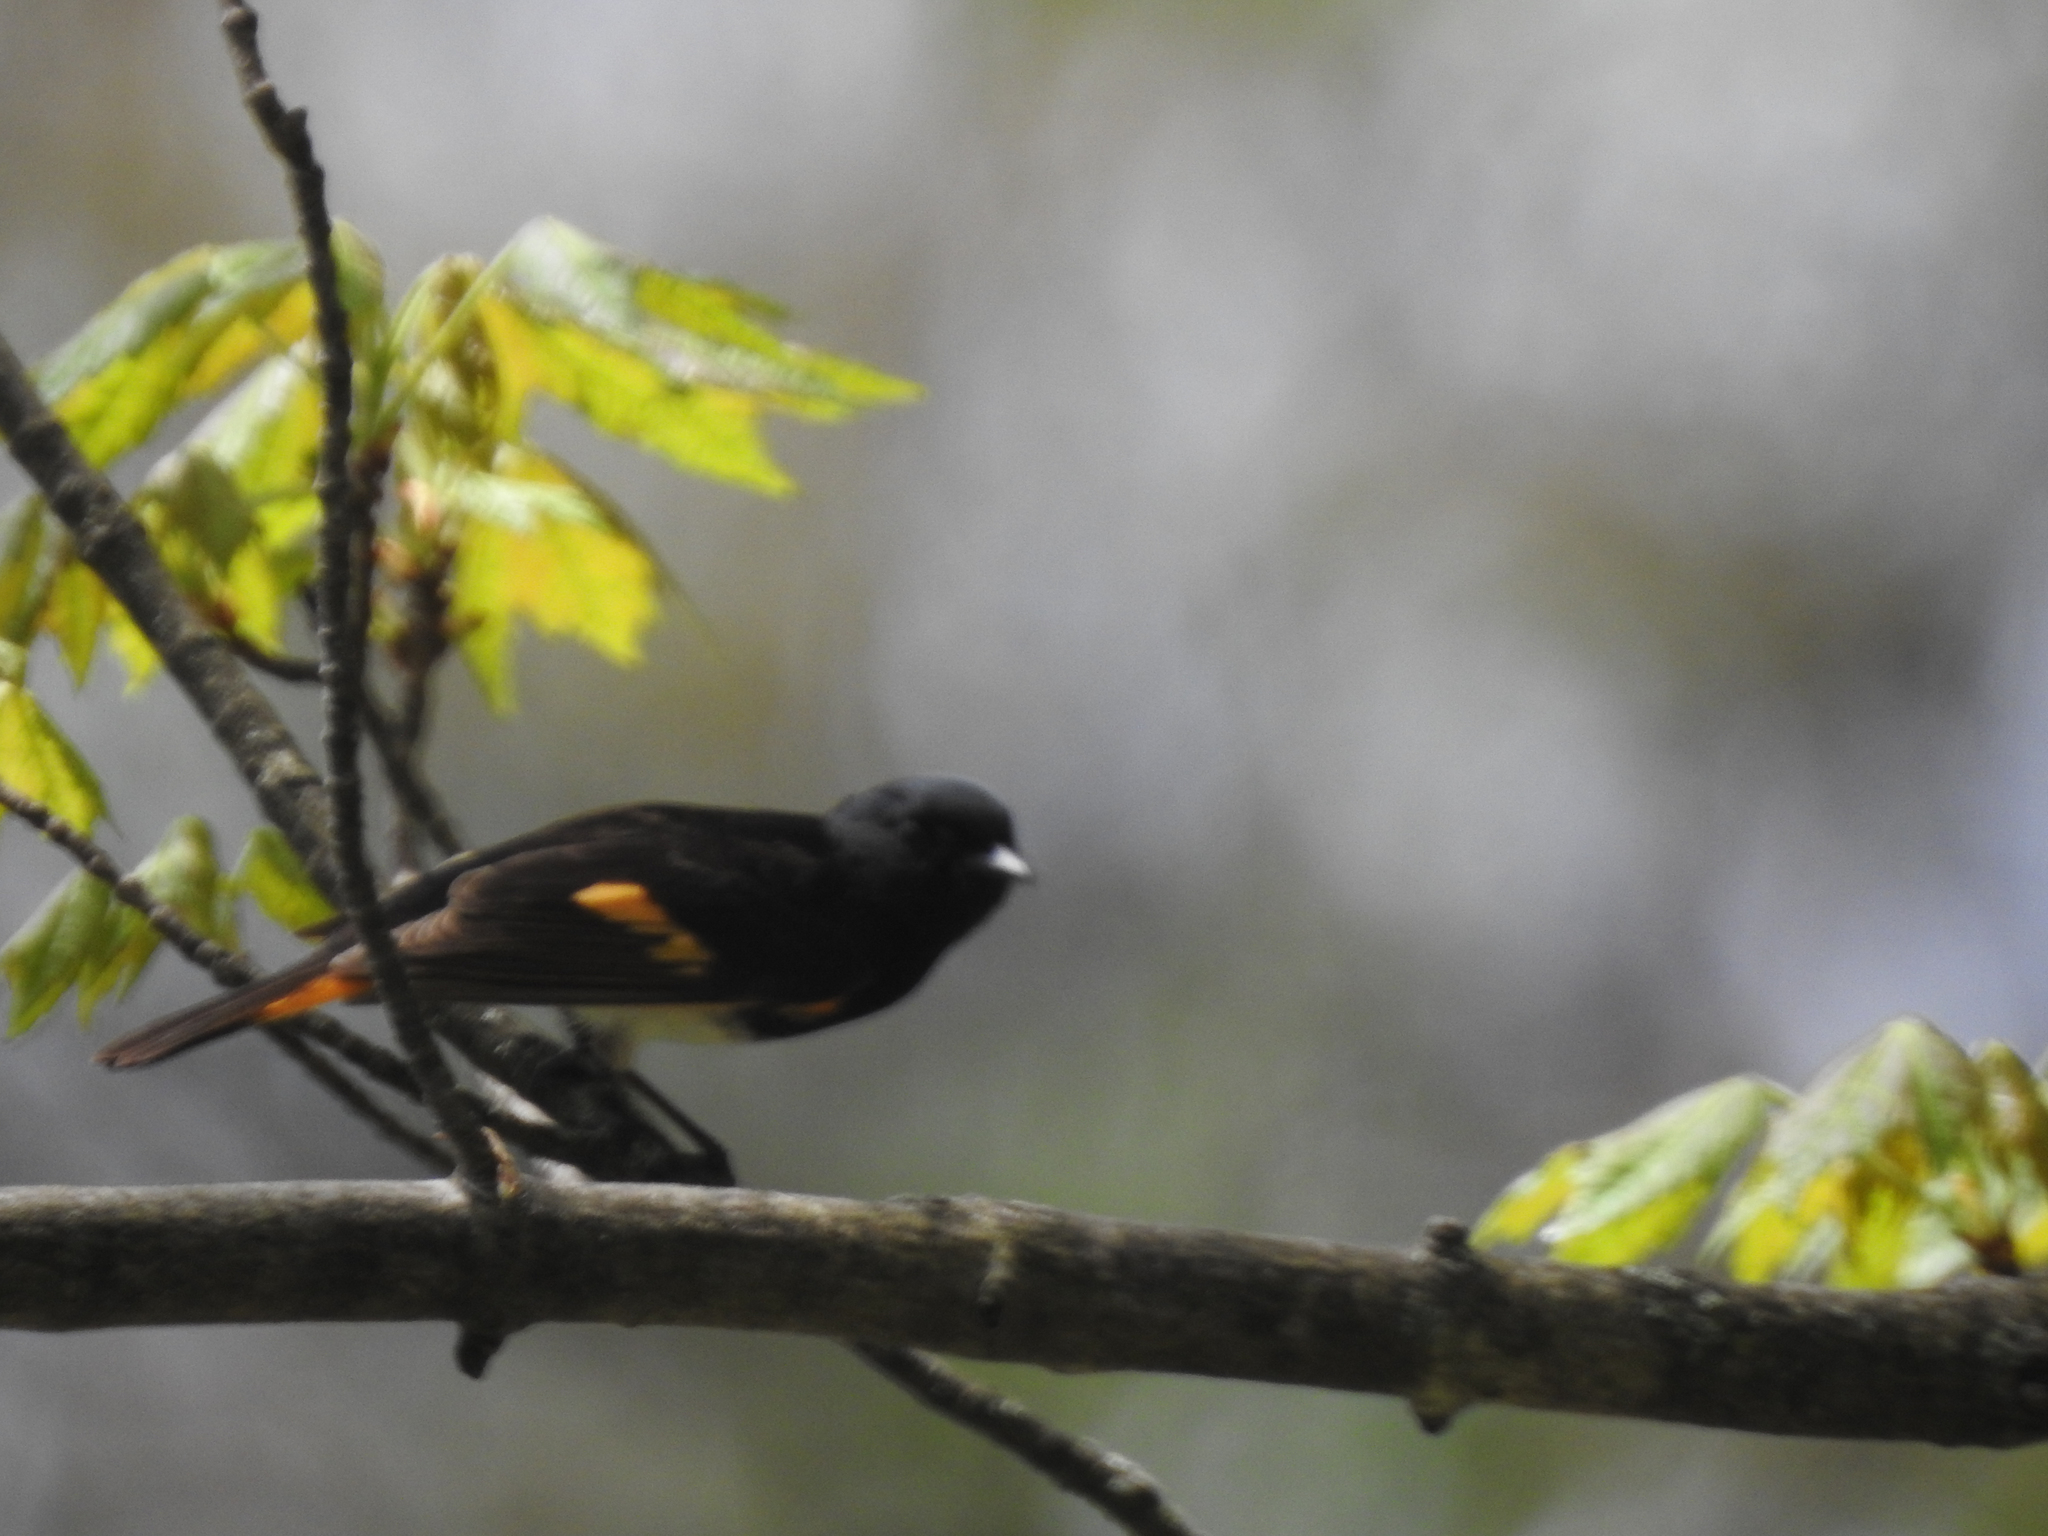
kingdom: Animalia
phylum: Chordata
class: Aves
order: Passeriformes
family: Parulidae
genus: Setophaga
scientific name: Setophaga ruticilla
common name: American redstart
